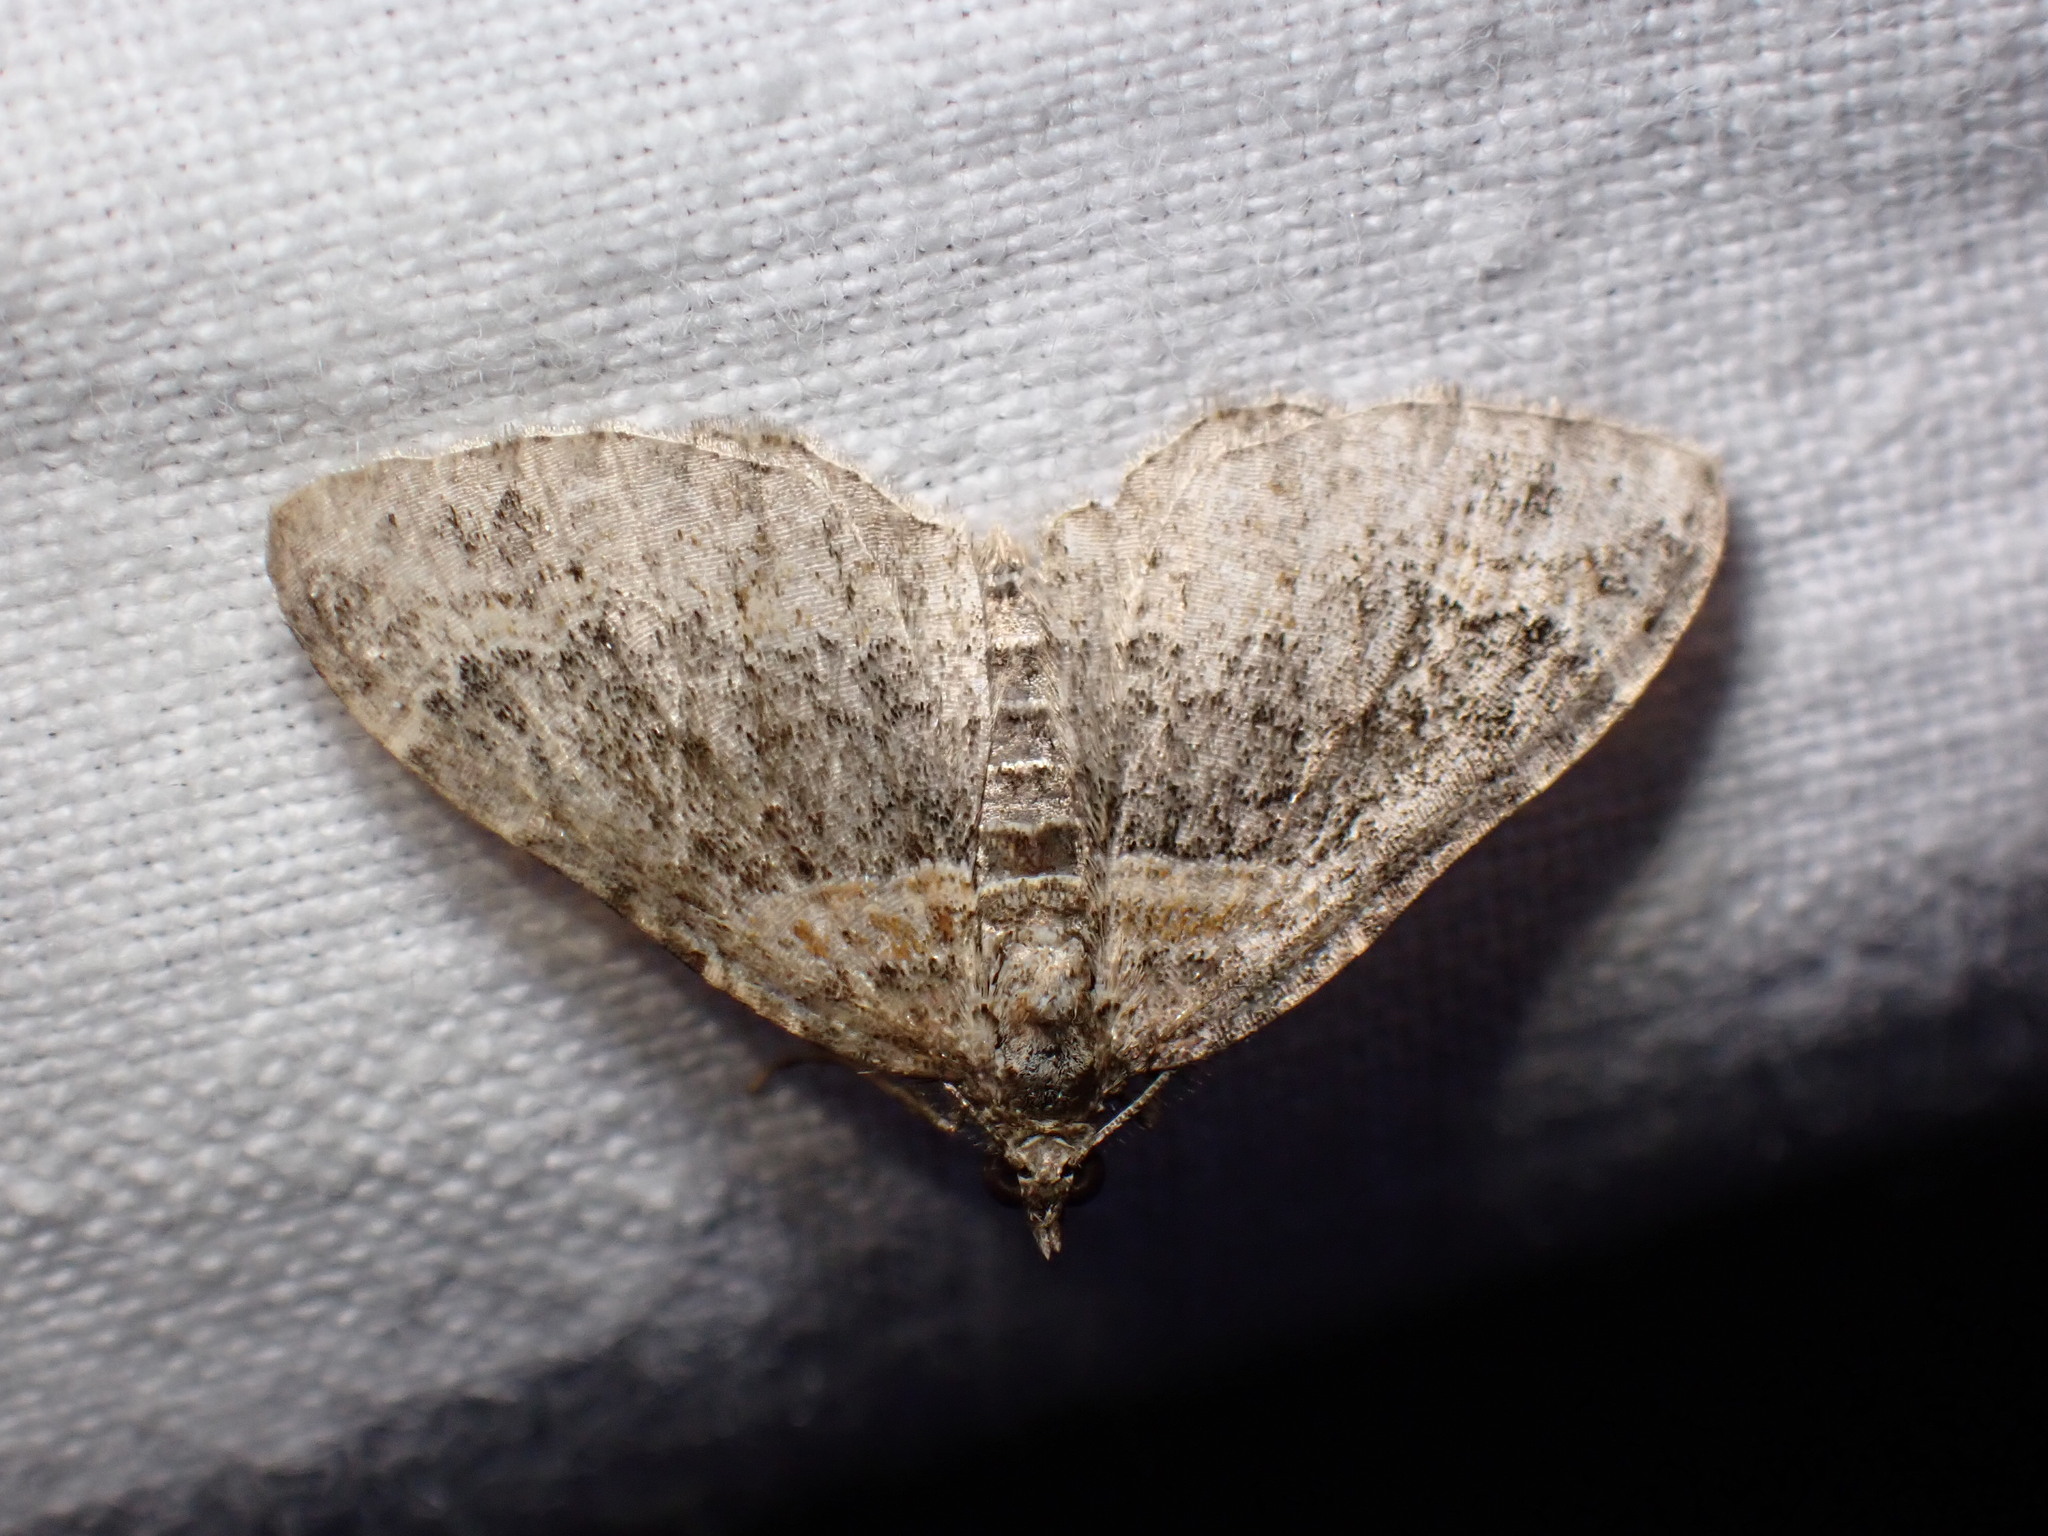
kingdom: Animalia
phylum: Arthropoda
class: Insecta
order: Lepidoptera
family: Geometridae
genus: Xanthorhoe
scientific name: Xanthorhoe ferrugata
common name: Dark-barred twin-spot carpet
